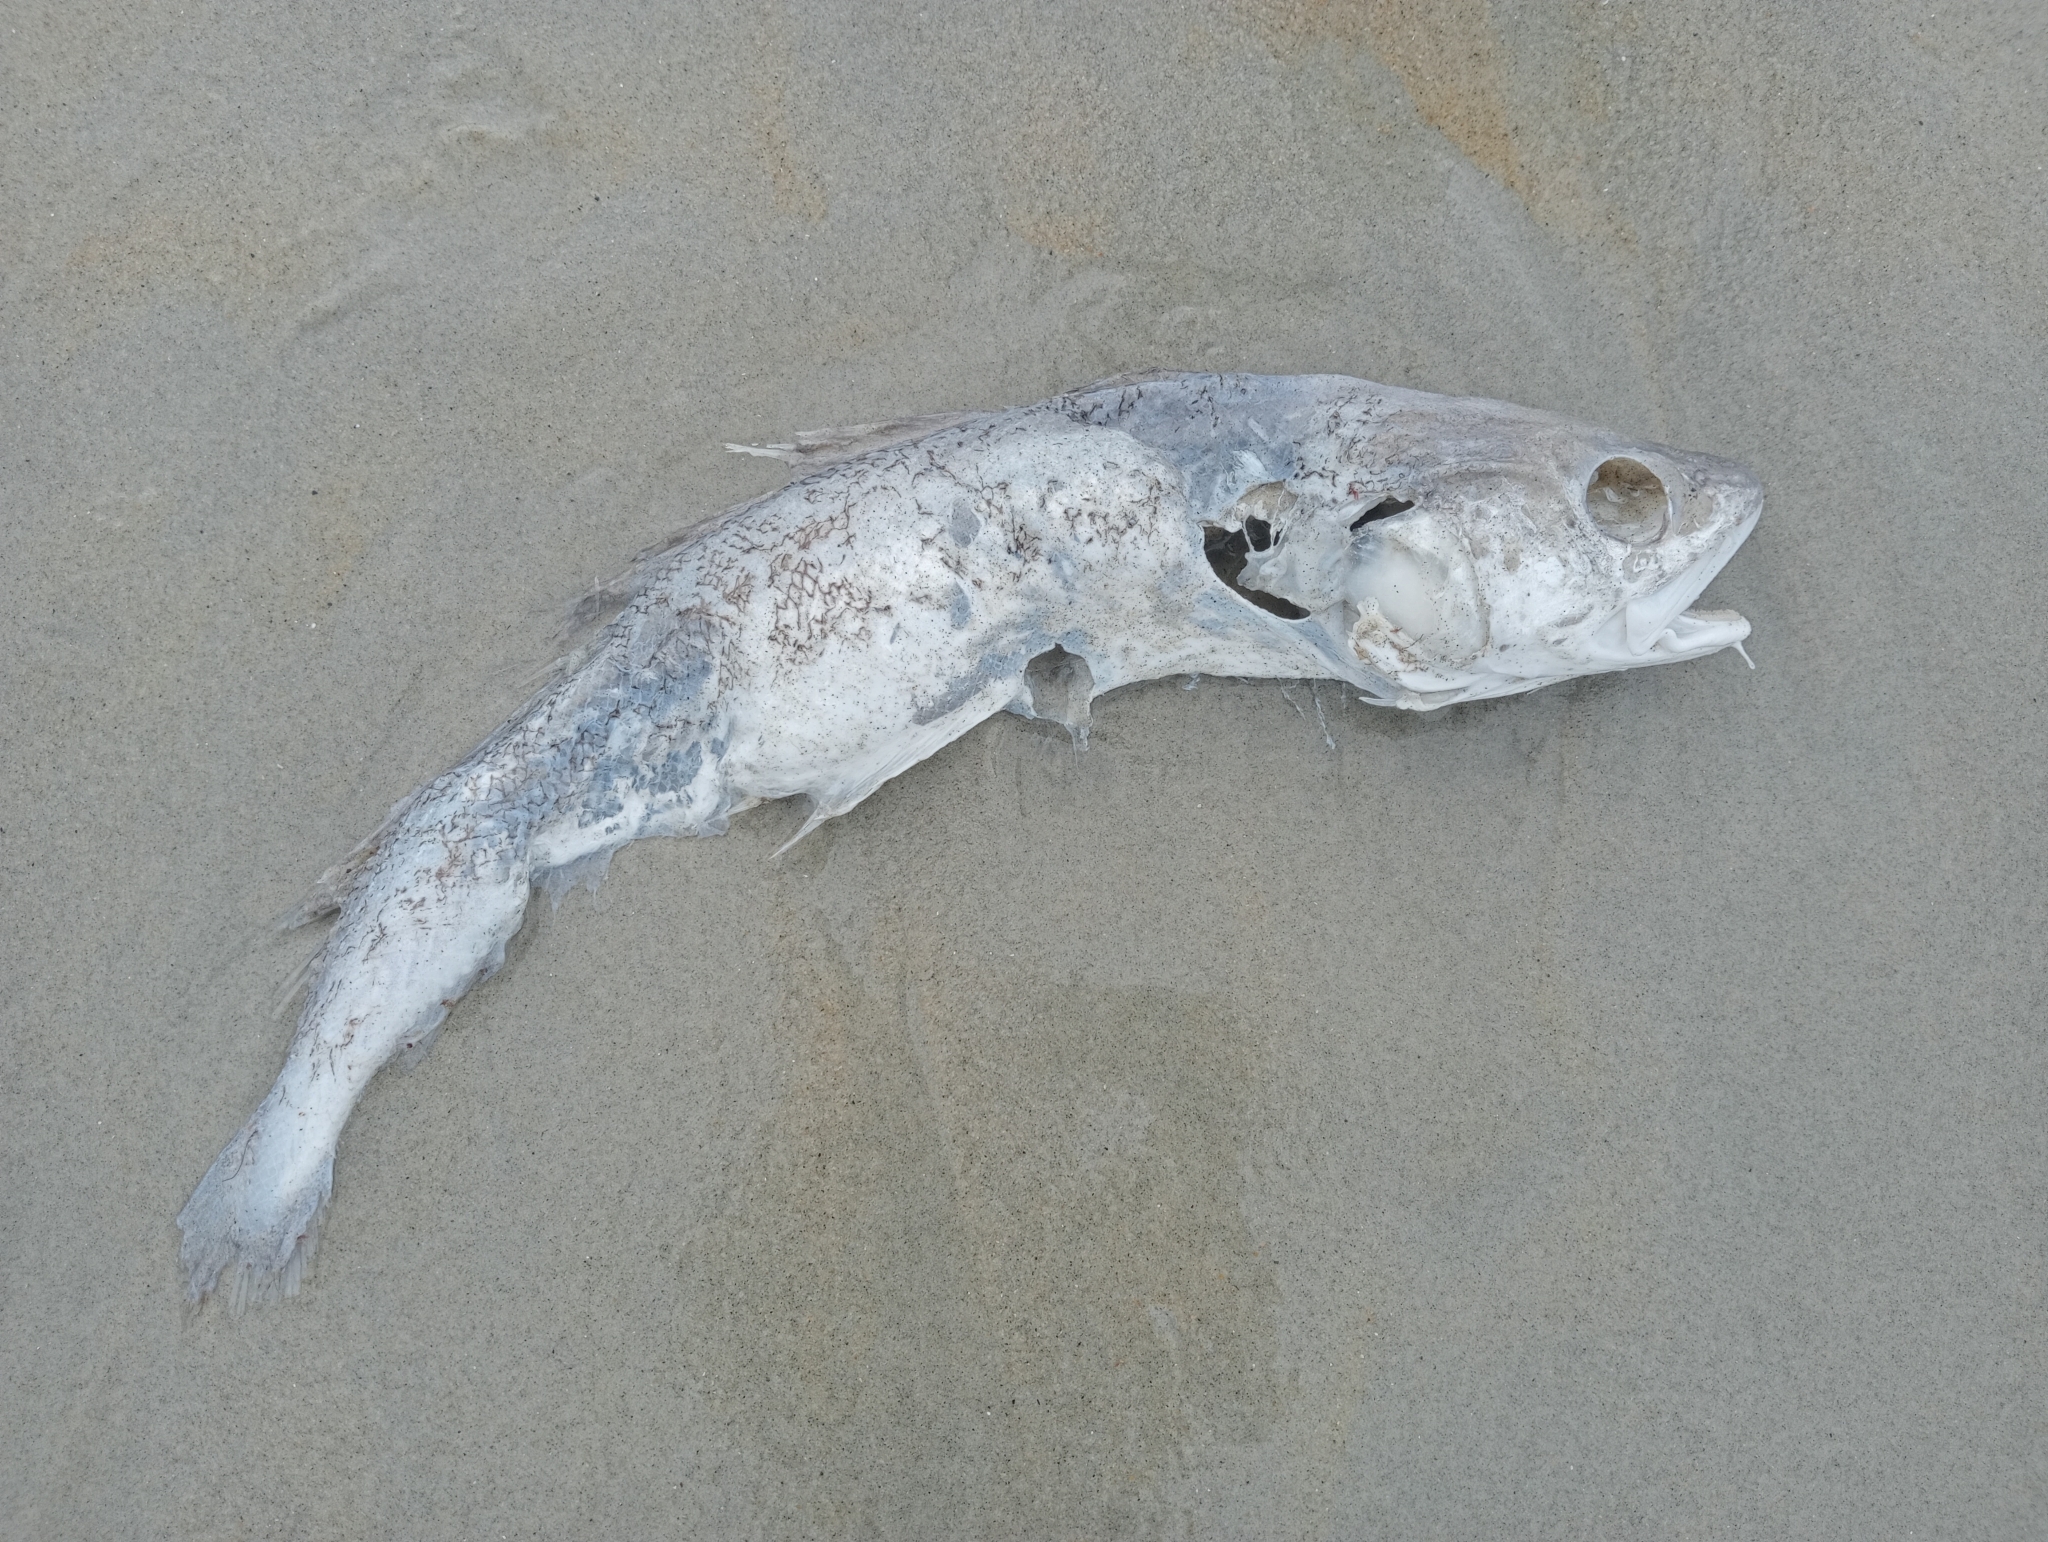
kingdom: Animalia
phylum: Chordata
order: Gadiformes
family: Moridae
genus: Pseudophycis
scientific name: Pseudophycis bachus
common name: Red cod
